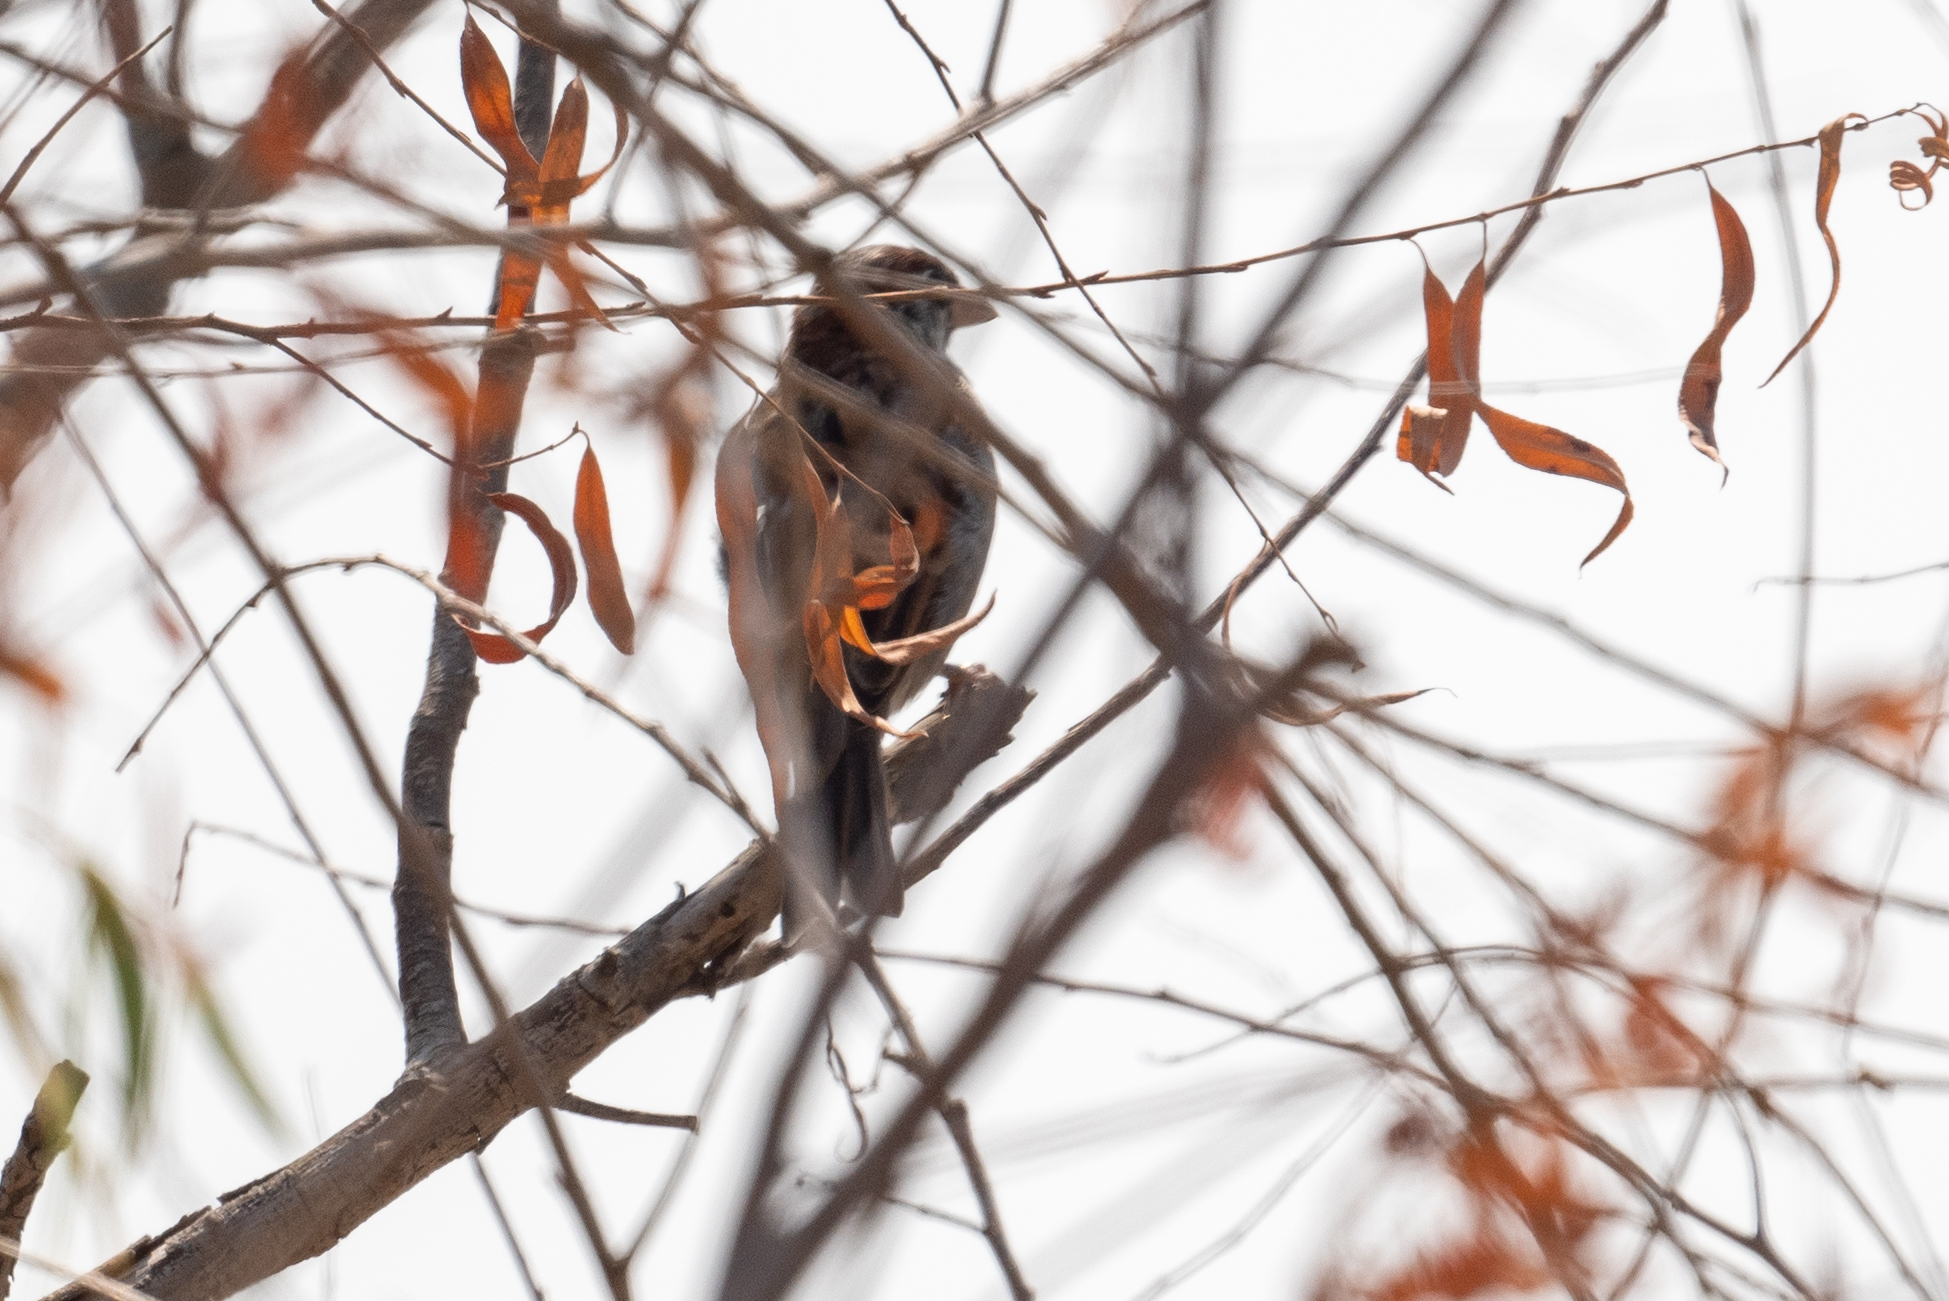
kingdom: Animalia
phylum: Chordata
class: Aves
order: Passeriformes
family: Passeridae
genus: Passer
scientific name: Passer domesticus
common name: House sparrow
